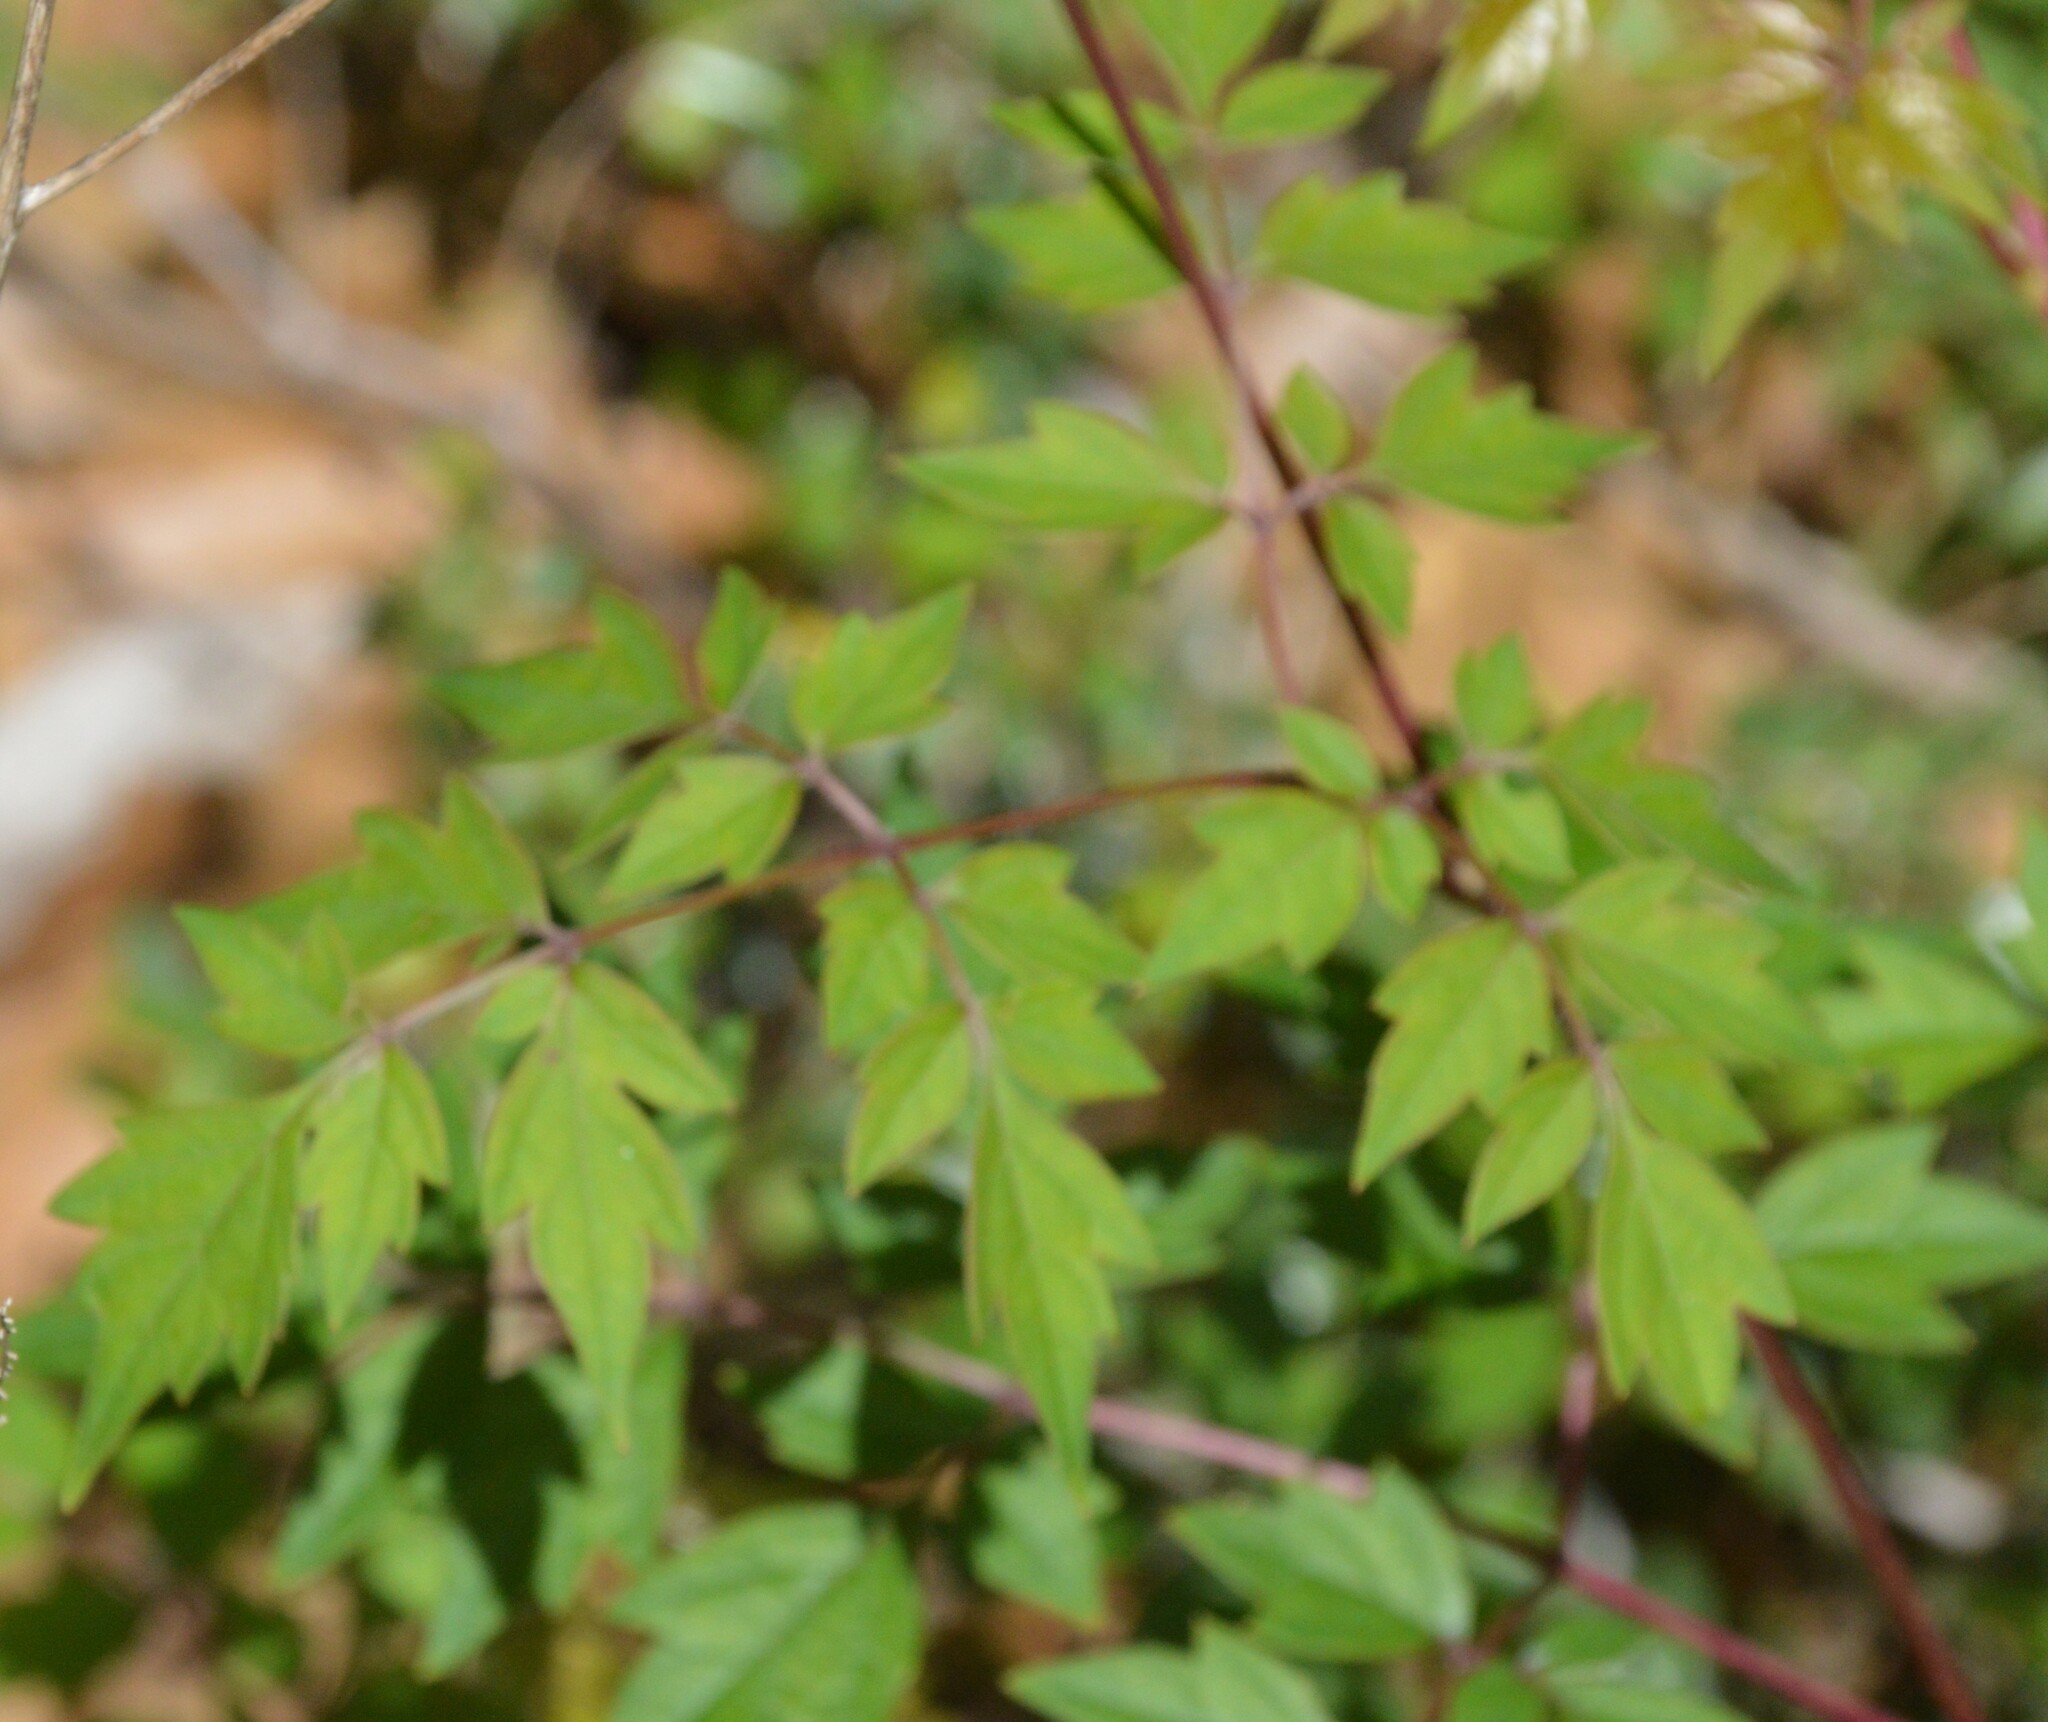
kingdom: Plantae
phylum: Tracheophyta
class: Magnoliopsida
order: Vitales
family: Vitaceae
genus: Nekemias
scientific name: Nekemias arborea
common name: Peppervine
